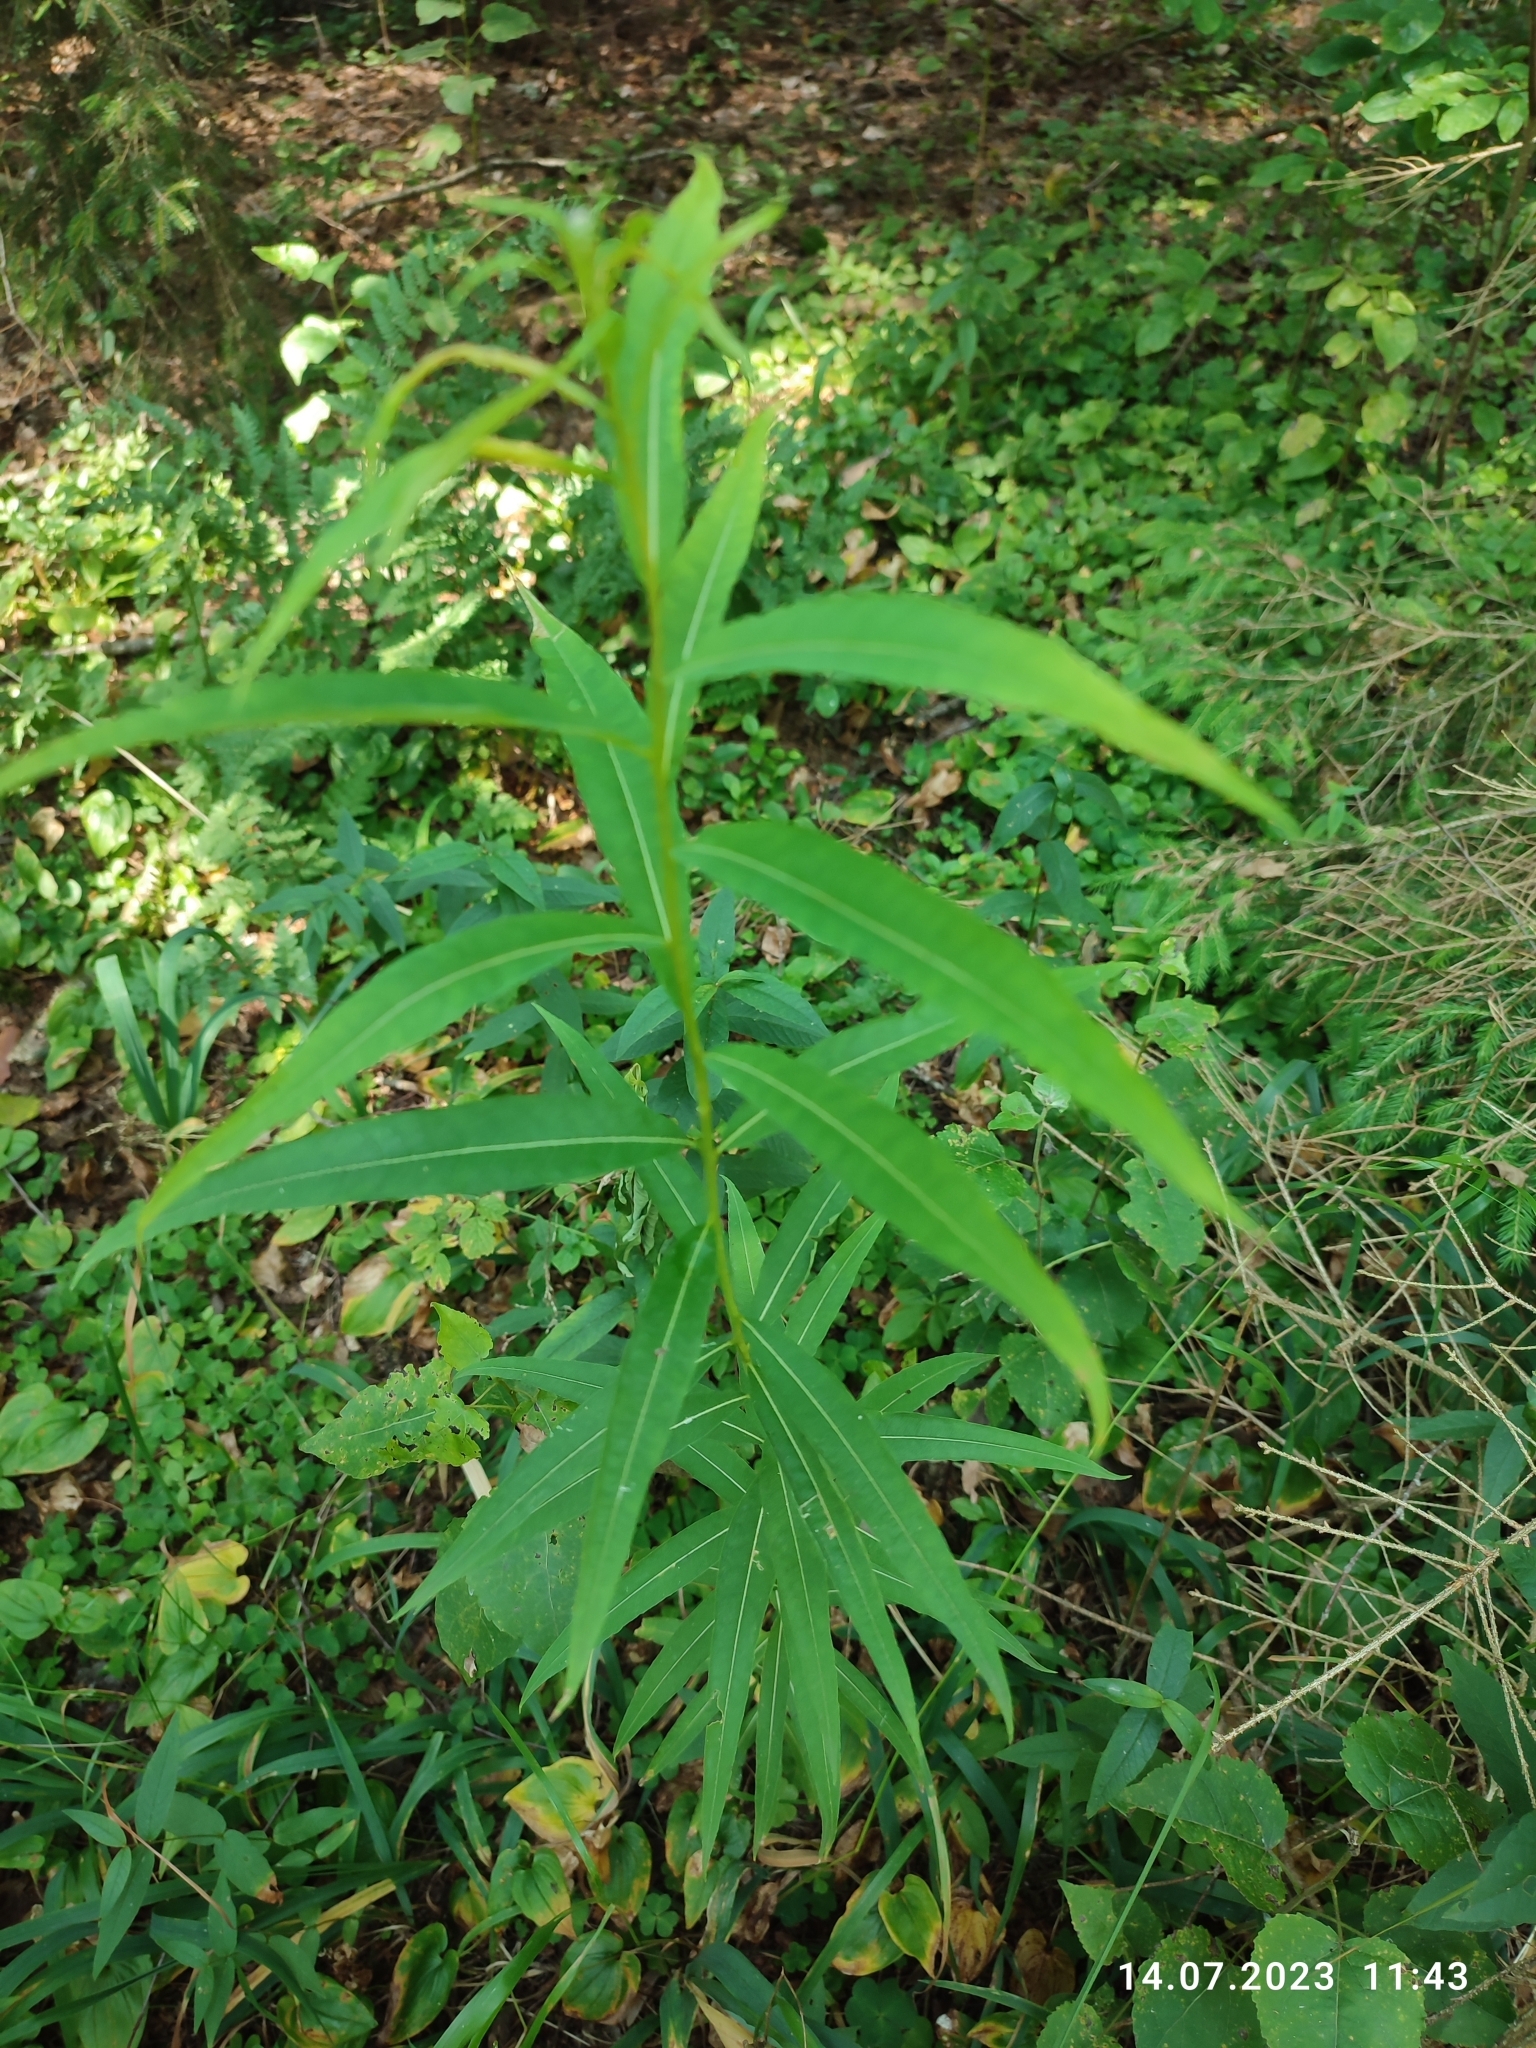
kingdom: Plantae
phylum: Tracheophyta
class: Magnoliopsida
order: Myrtales
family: Onagraceae
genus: Chamaenerion
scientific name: Chamaenerion angustifolium
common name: Fireweed
